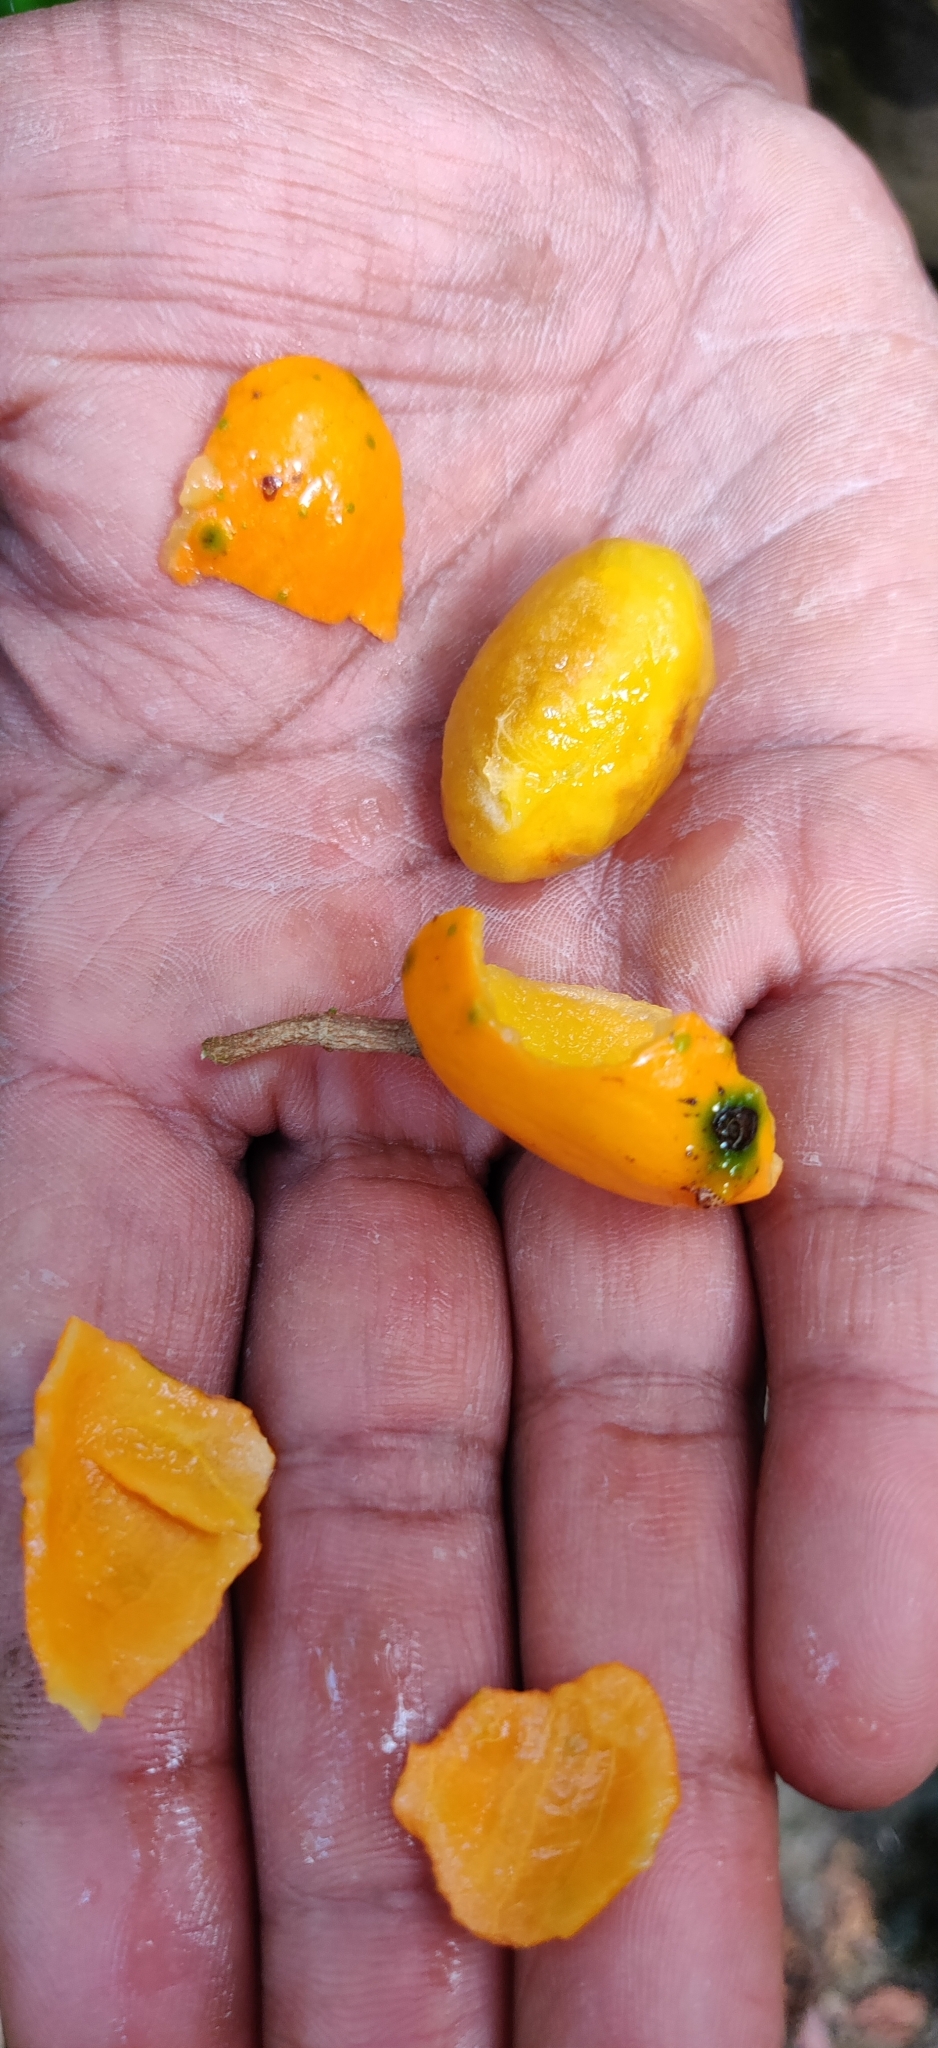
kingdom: Plantae
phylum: Tracheophyta
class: Magnoliopsida
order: Celastrales
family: Celastraceae
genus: Salacia
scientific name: Salacia fruticosa
